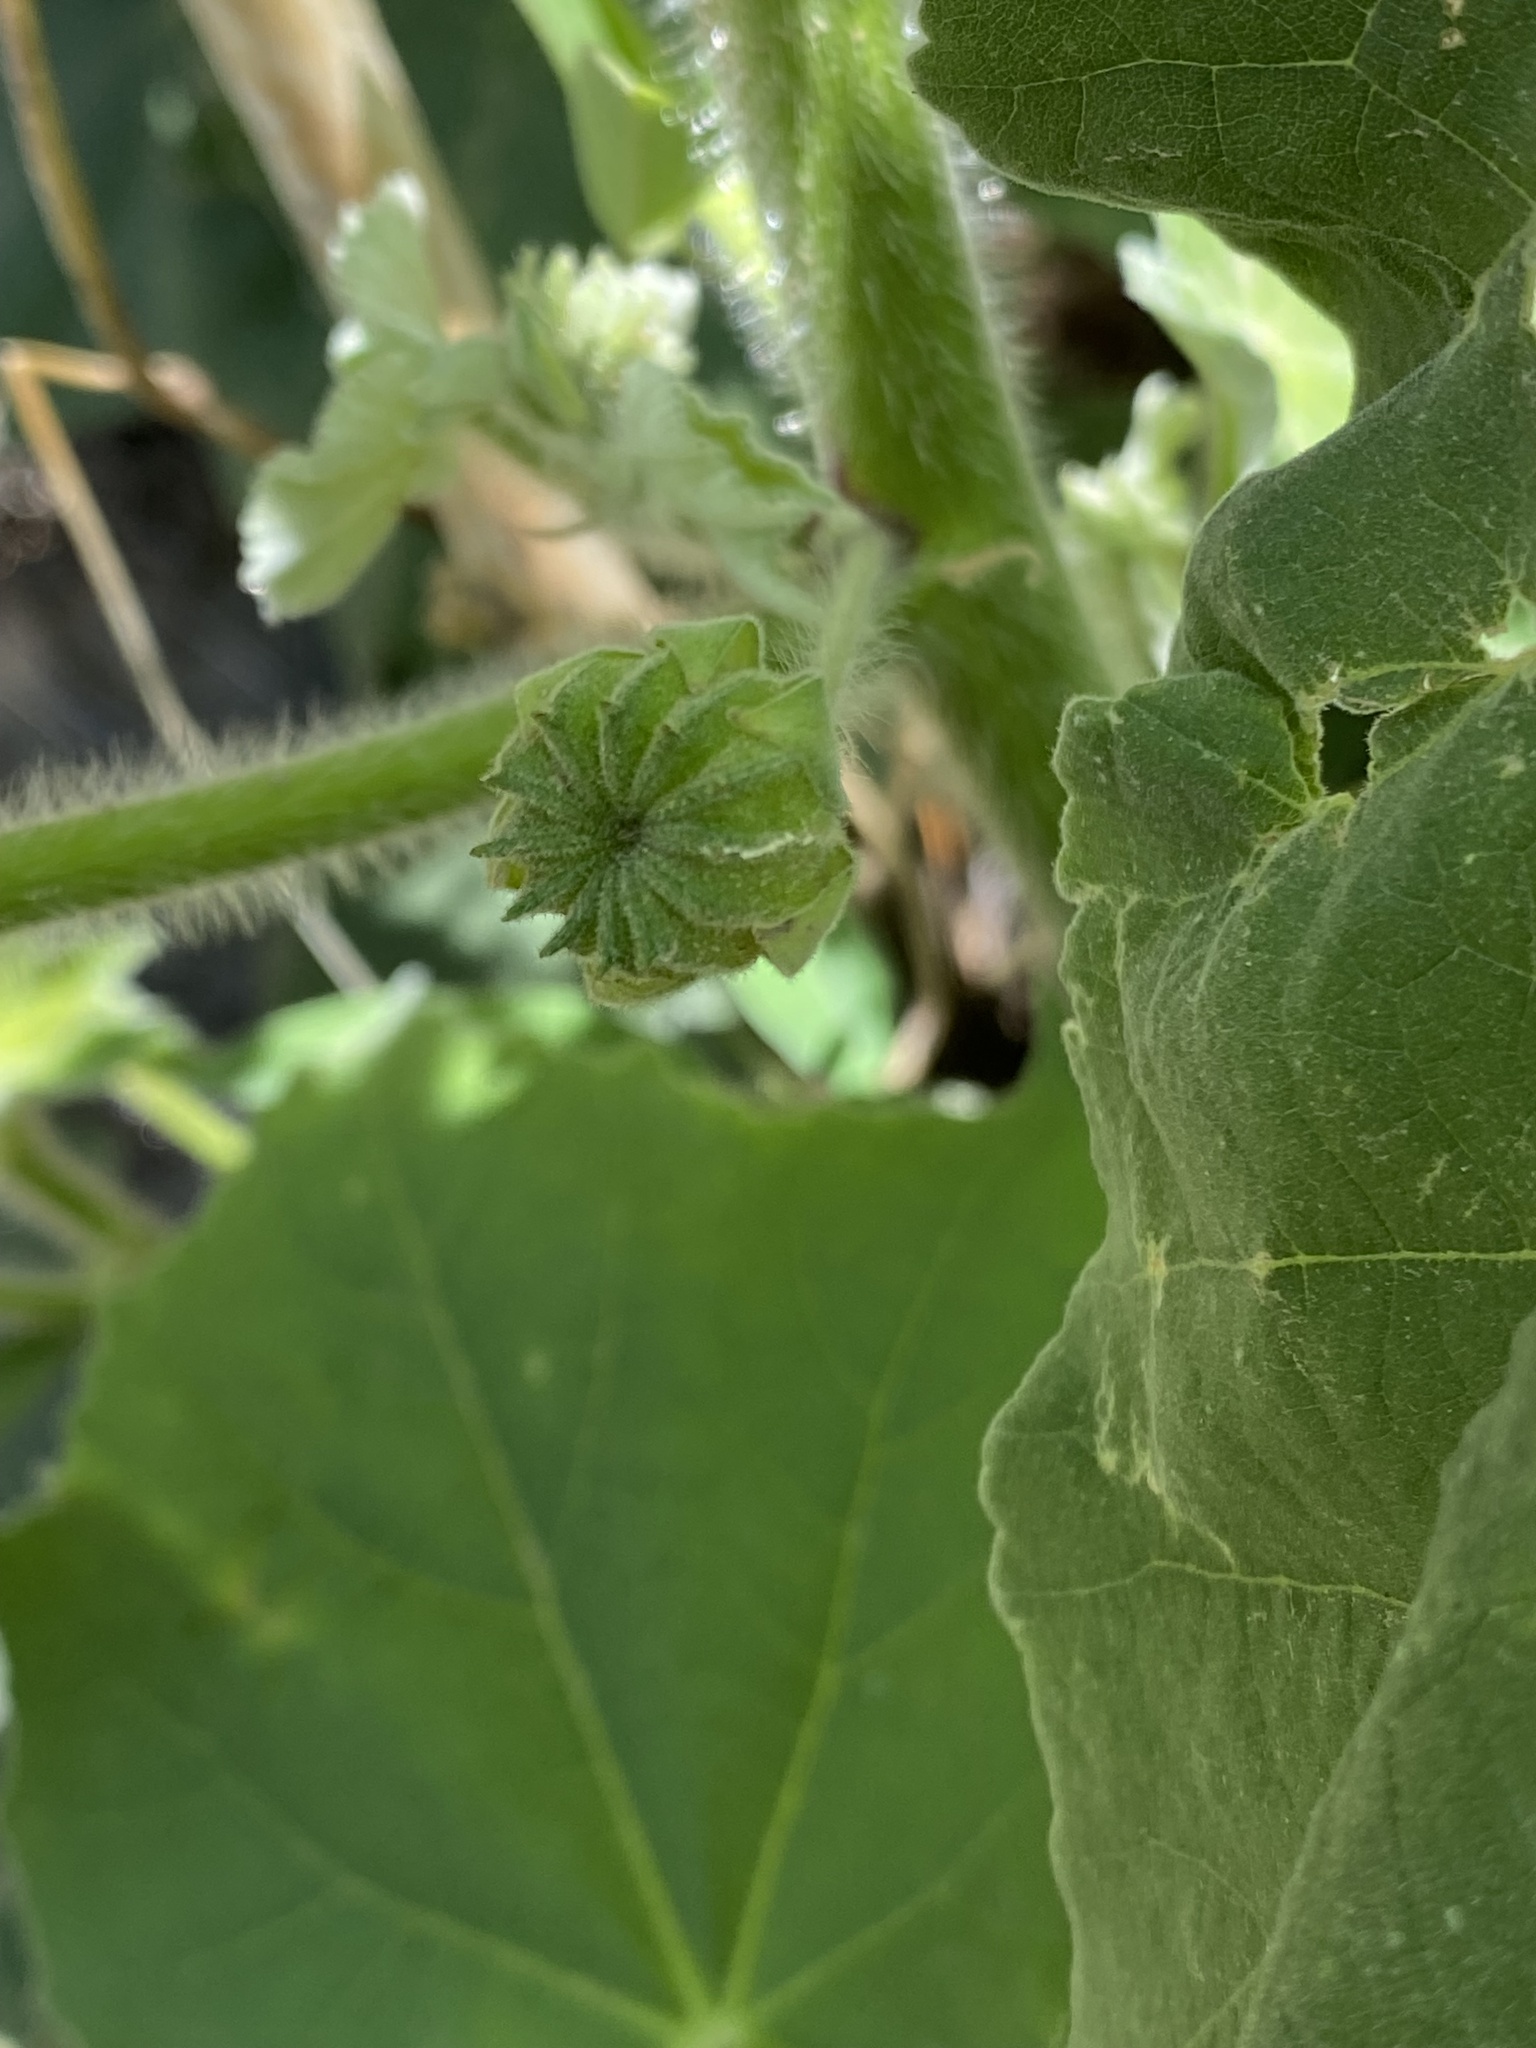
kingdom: Plantae
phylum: Tracheophyta
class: Magnoliopsida
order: Malvales
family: Malvaceae
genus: Abutilon
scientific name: Abutilon mollicomum
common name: Sonoran indian-mallow
